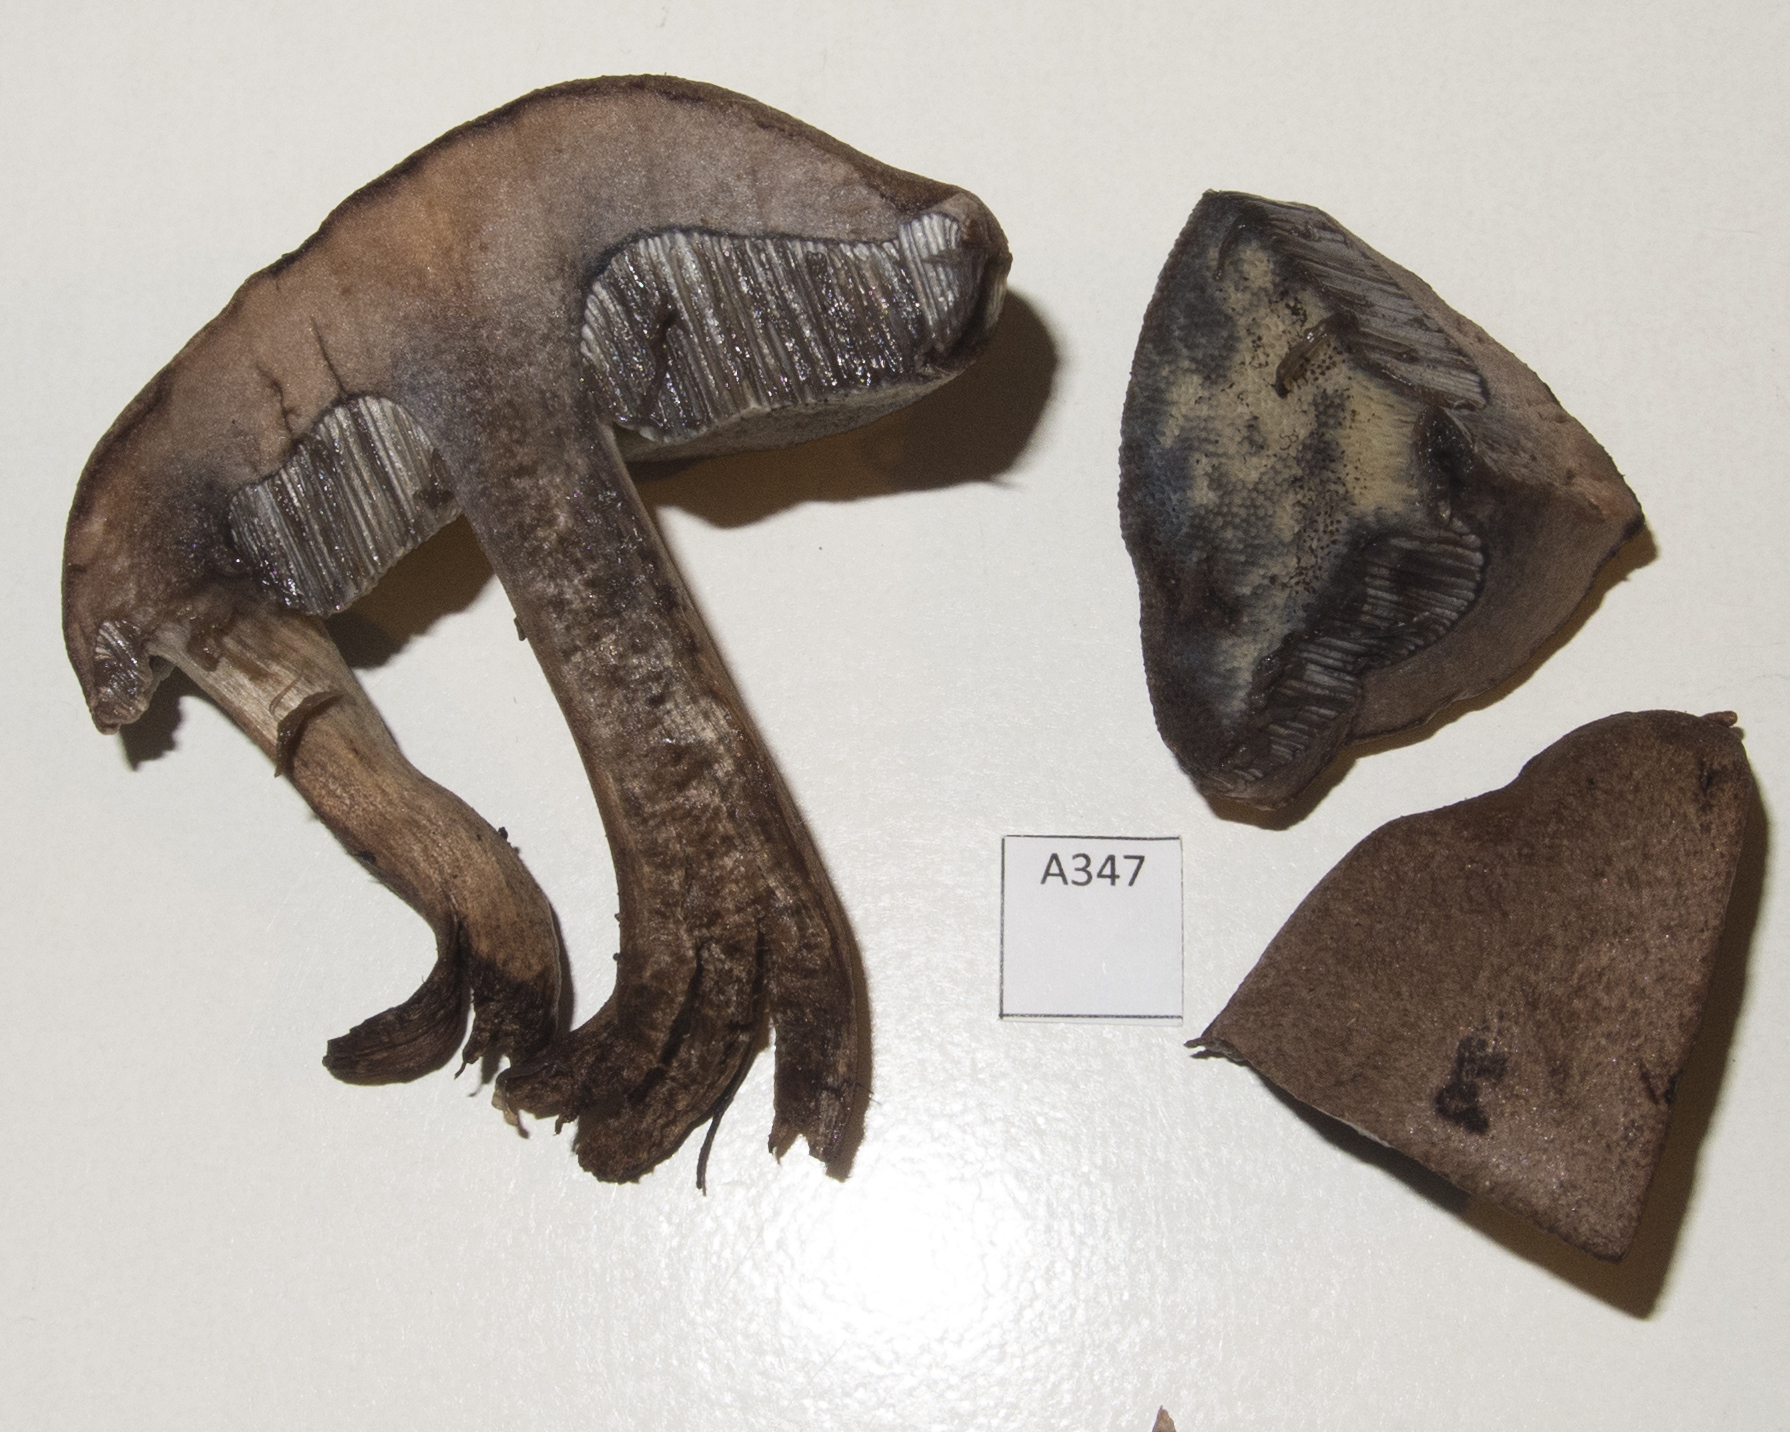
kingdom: Fungi
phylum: Basidiomycota
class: Agaricomycetes
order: Boletales
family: Boletaceae
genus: Porphyrellus
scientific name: Porphyrellus brunneus
